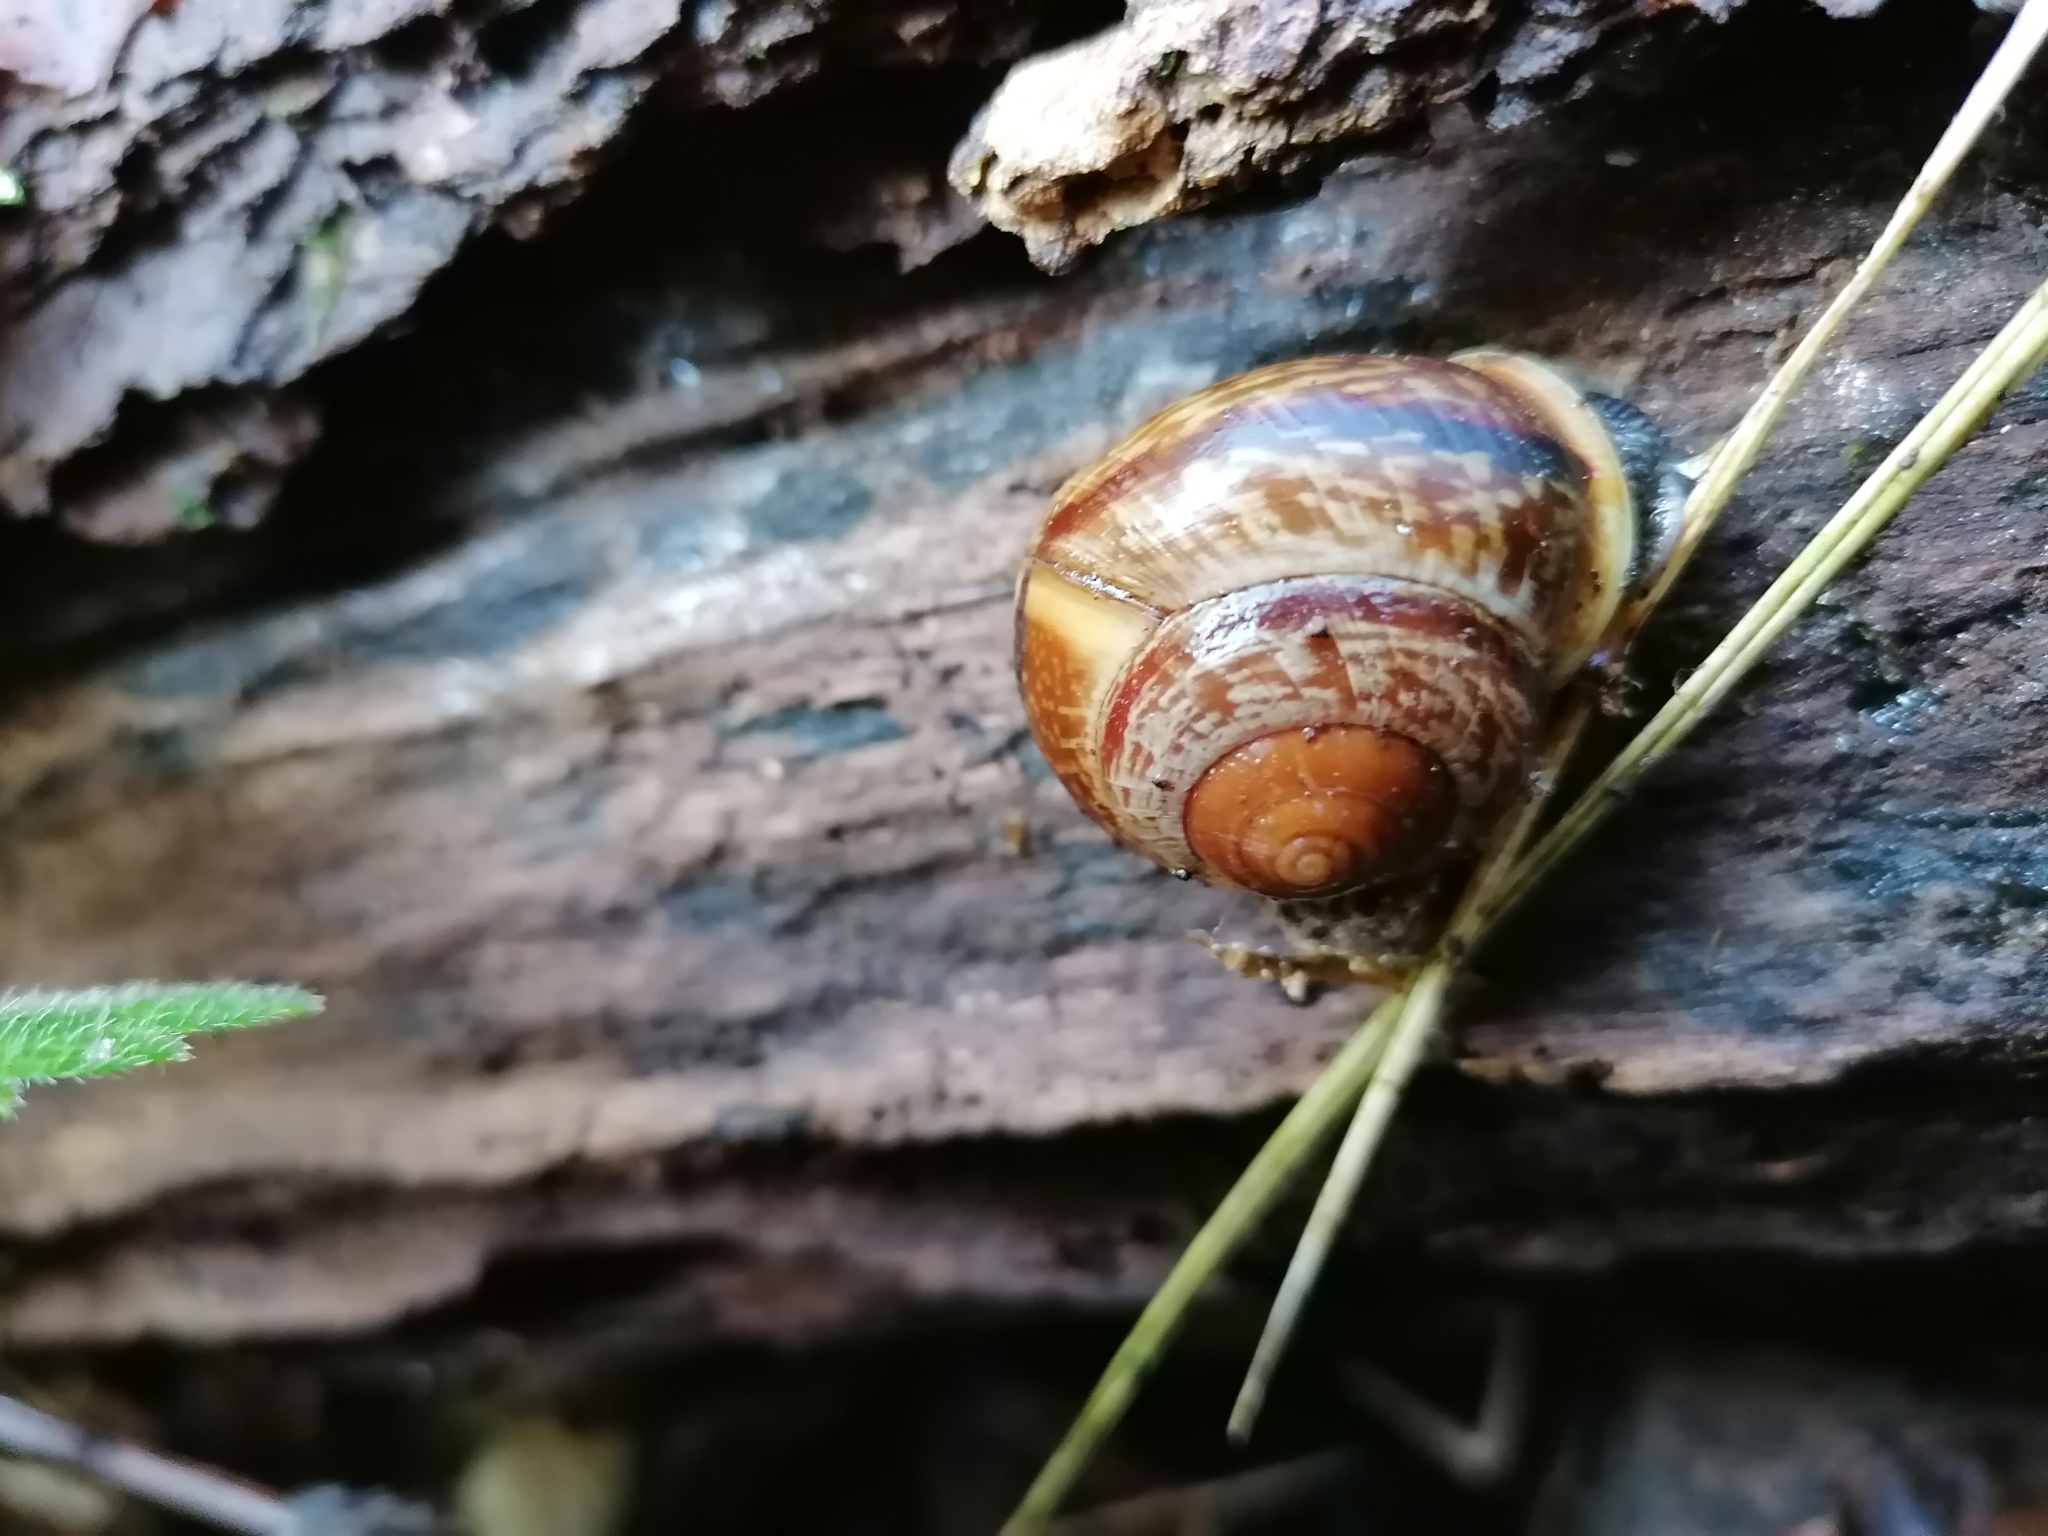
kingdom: Animalia
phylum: Mollusca
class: Gastropoda
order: Stylommatophora
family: Helicidae
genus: Arianta
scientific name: Arianta arbustorum
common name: Copse snail
